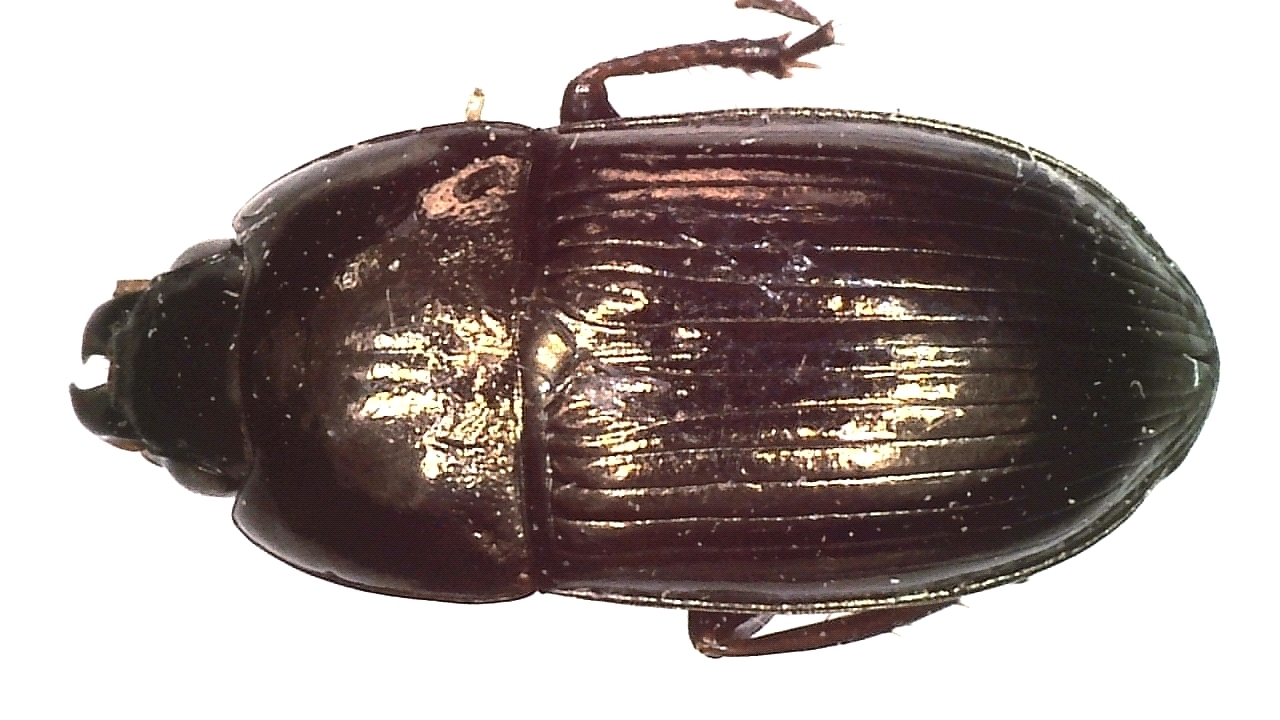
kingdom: Animalia
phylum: Arthropoda
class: Insecta
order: Coleoptera
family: Carabidae
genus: Amara
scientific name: Amara aenea
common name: Common sun beetle
